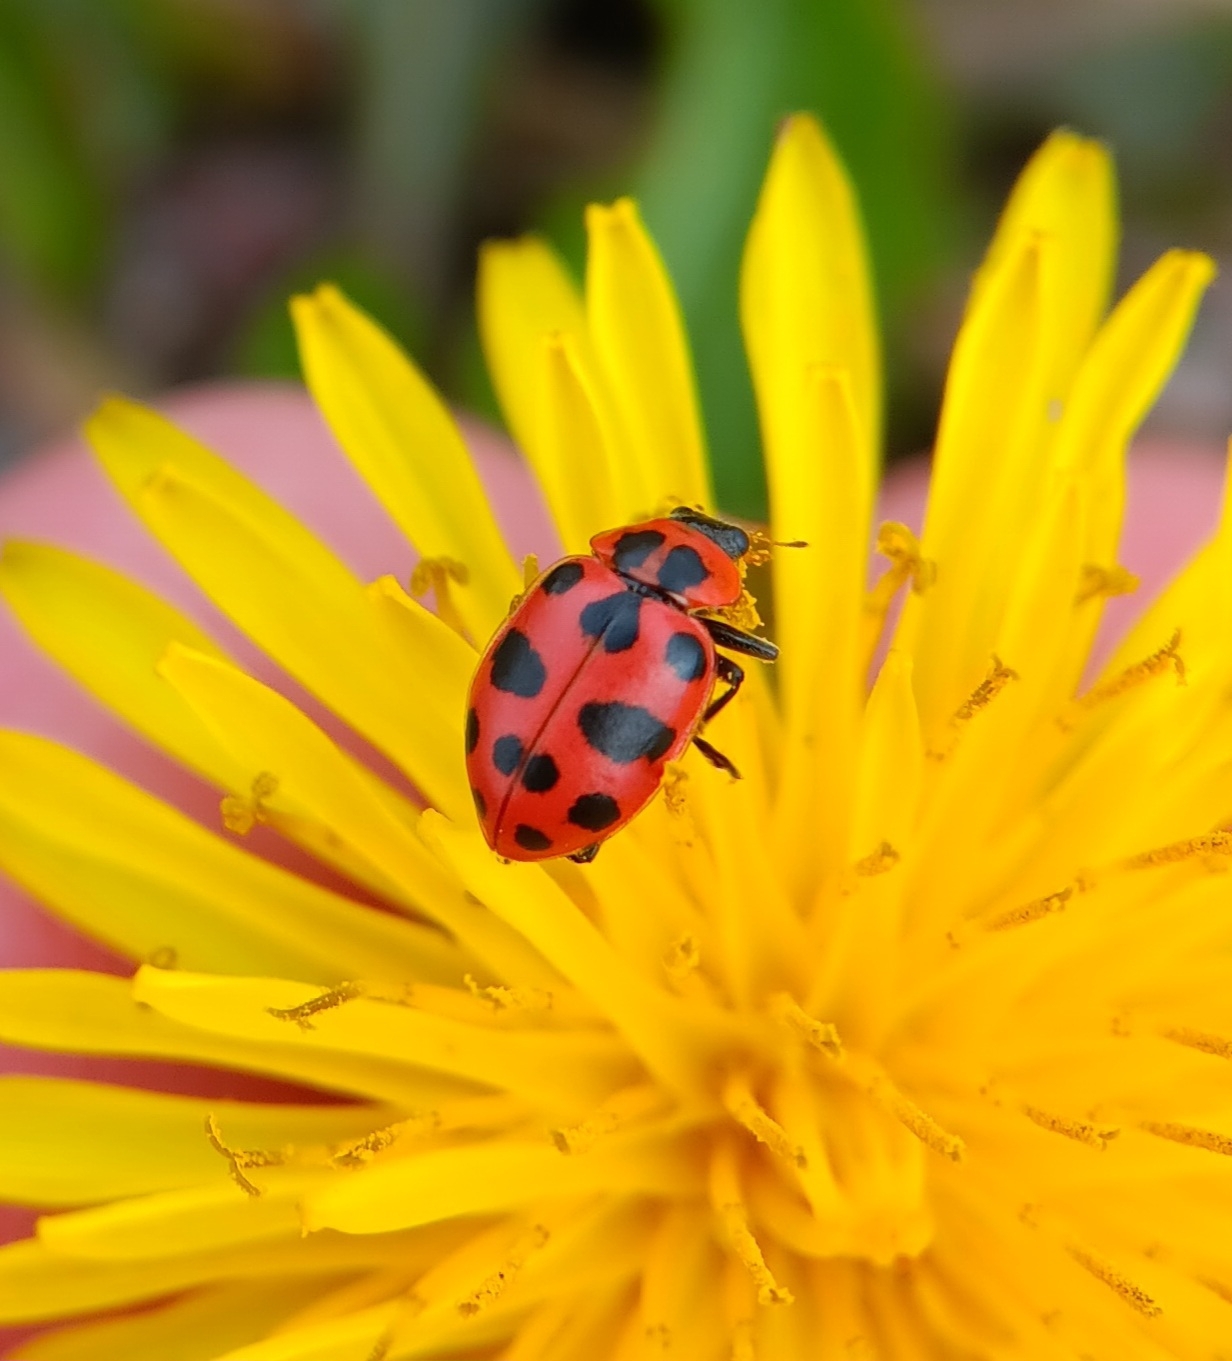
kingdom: Animalia
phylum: Arthropoda
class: Insecta
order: Coleoptera
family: Coccinellidae
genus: Coleomegilla
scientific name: Coleomegilla maculata
